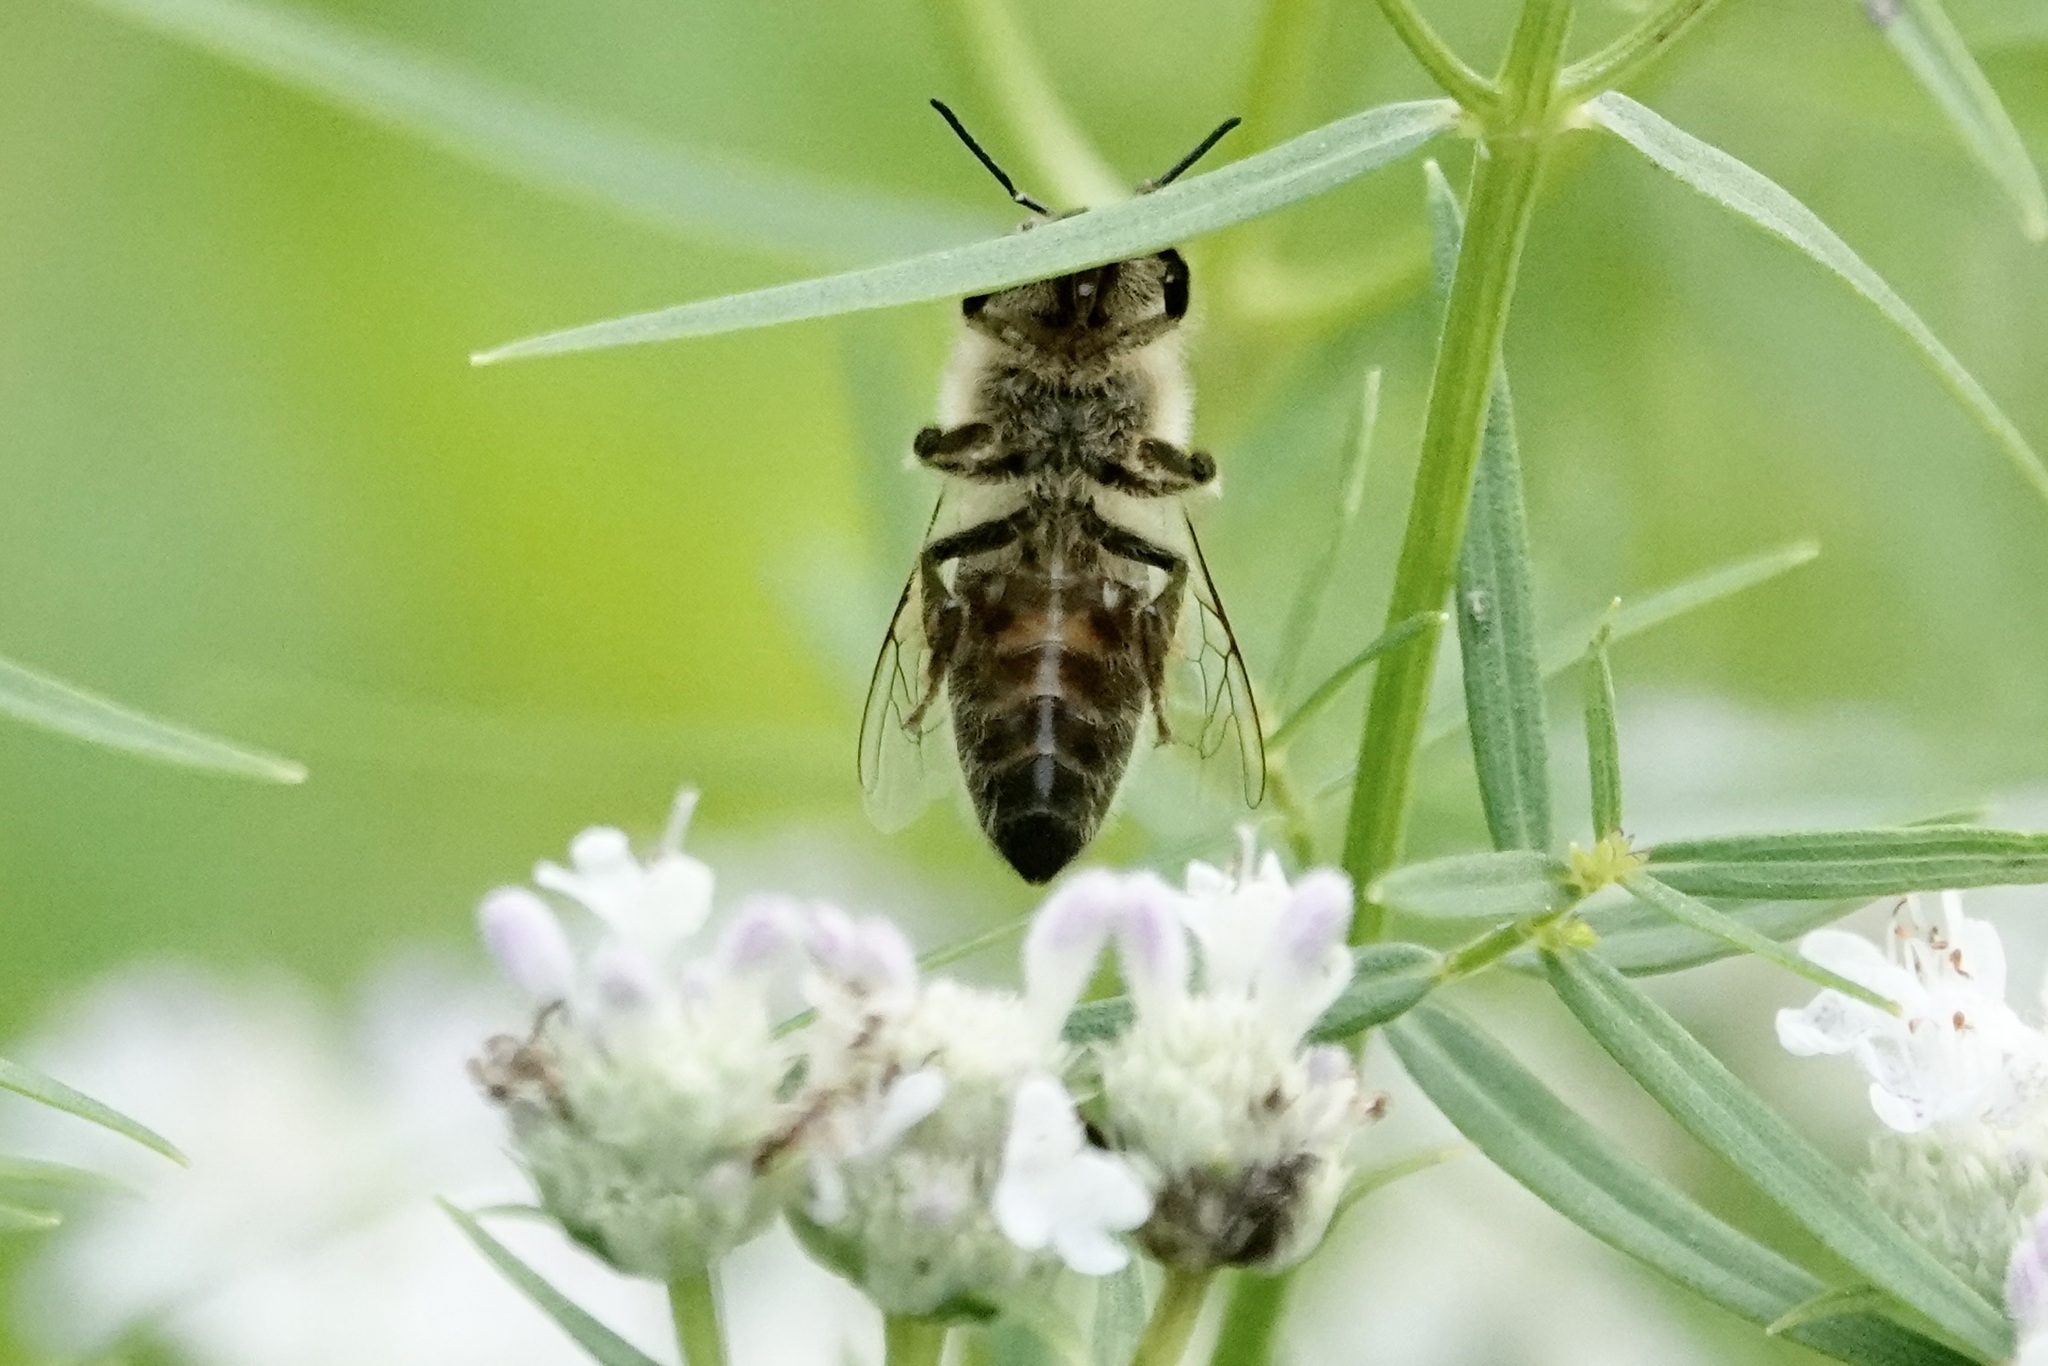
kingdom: Animalia
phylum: Arthropoda
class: Insecta
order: Hymenoptera
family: Apidae
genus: Apis
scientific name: Apis mellifera
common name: Honey bee
